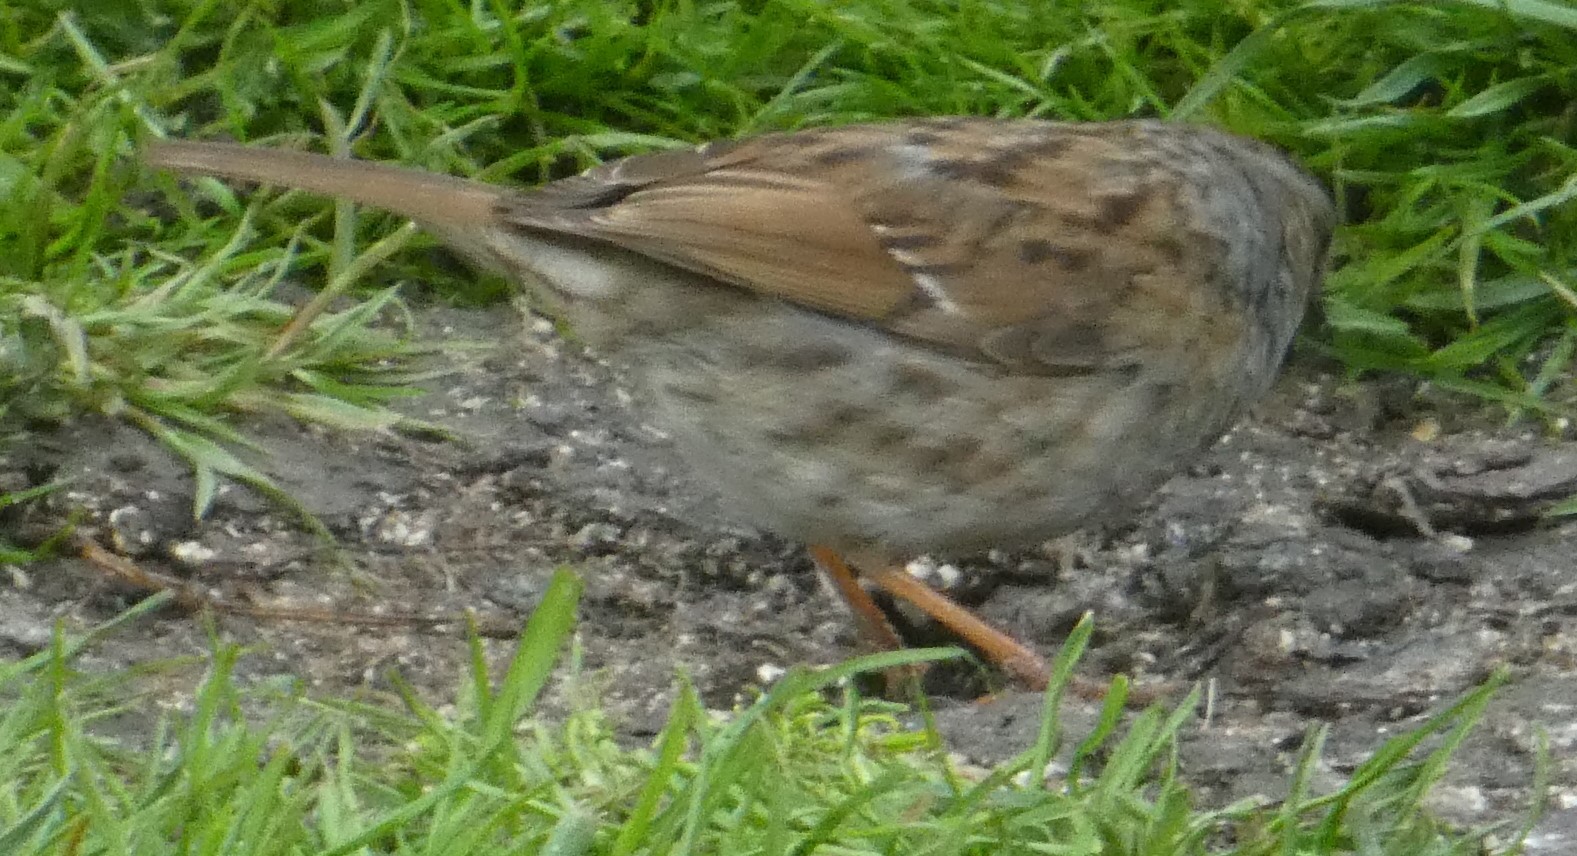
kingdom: Animalia
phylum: Chordata
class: Aves
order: Passeriformes
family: Prunellidae
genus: Prunella
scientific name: Prunella modularis
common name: Dunnock
